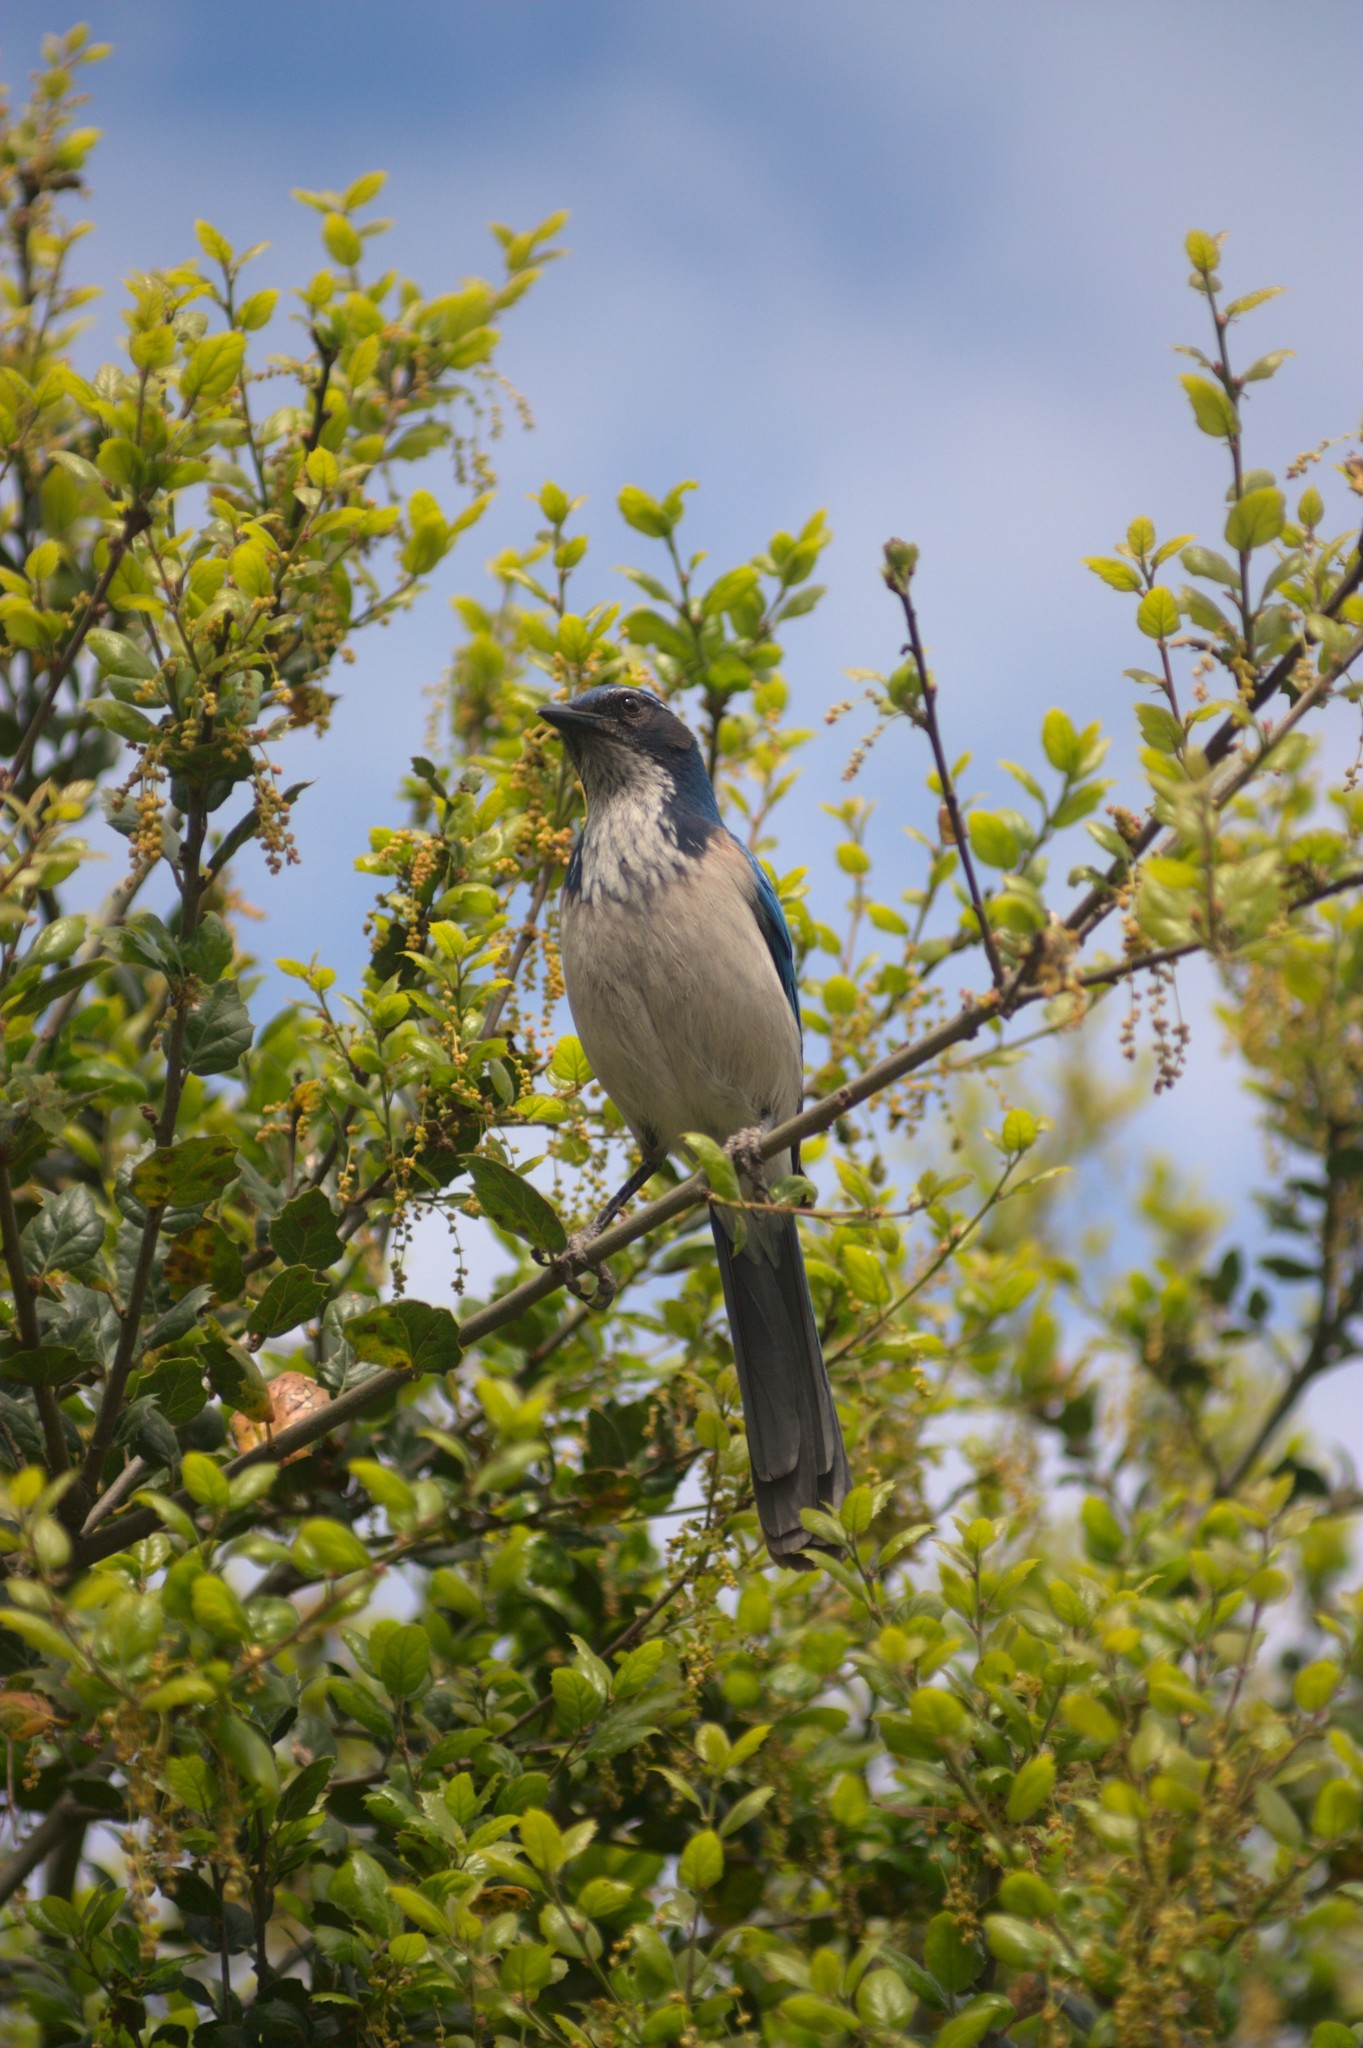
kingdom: Animalia
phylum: Chordata
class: Aves
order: Passeriformes
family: Corvidae
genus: Aphelocoma
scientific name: Aphelocoma californica
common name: California scrub-jay
